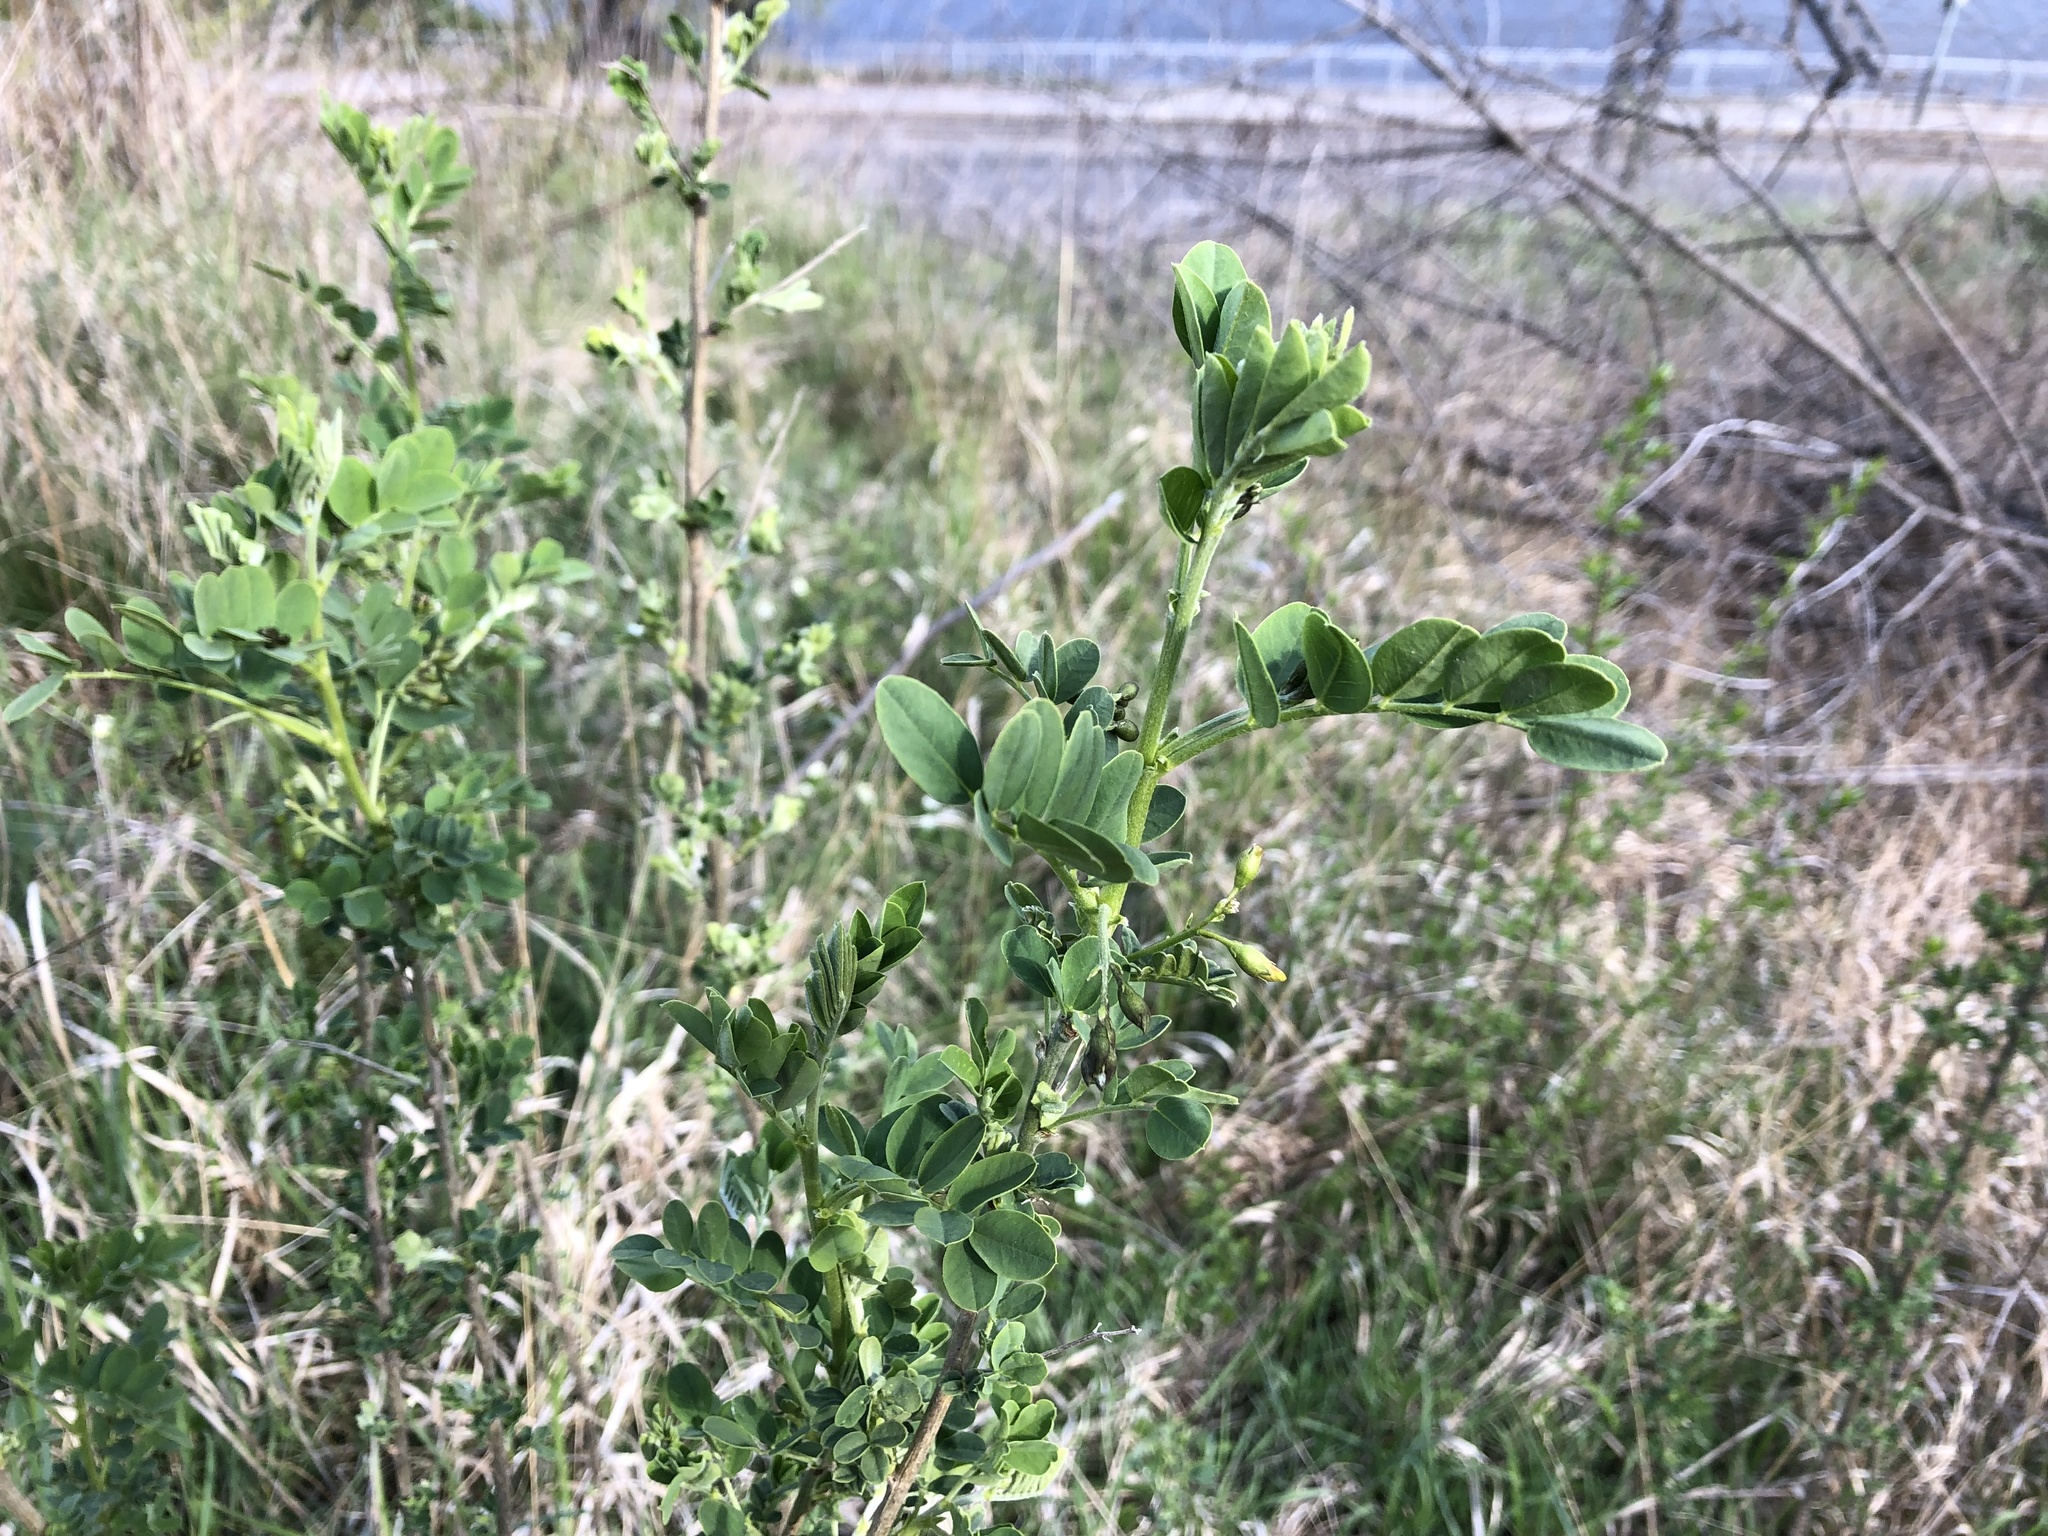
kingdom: Plantae
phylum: Tracheophyta
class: Magnoliopsida
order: Fabales
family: Fabaceae
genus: Caragana
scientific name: Caragana arborescens
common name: Siberian peashrub
